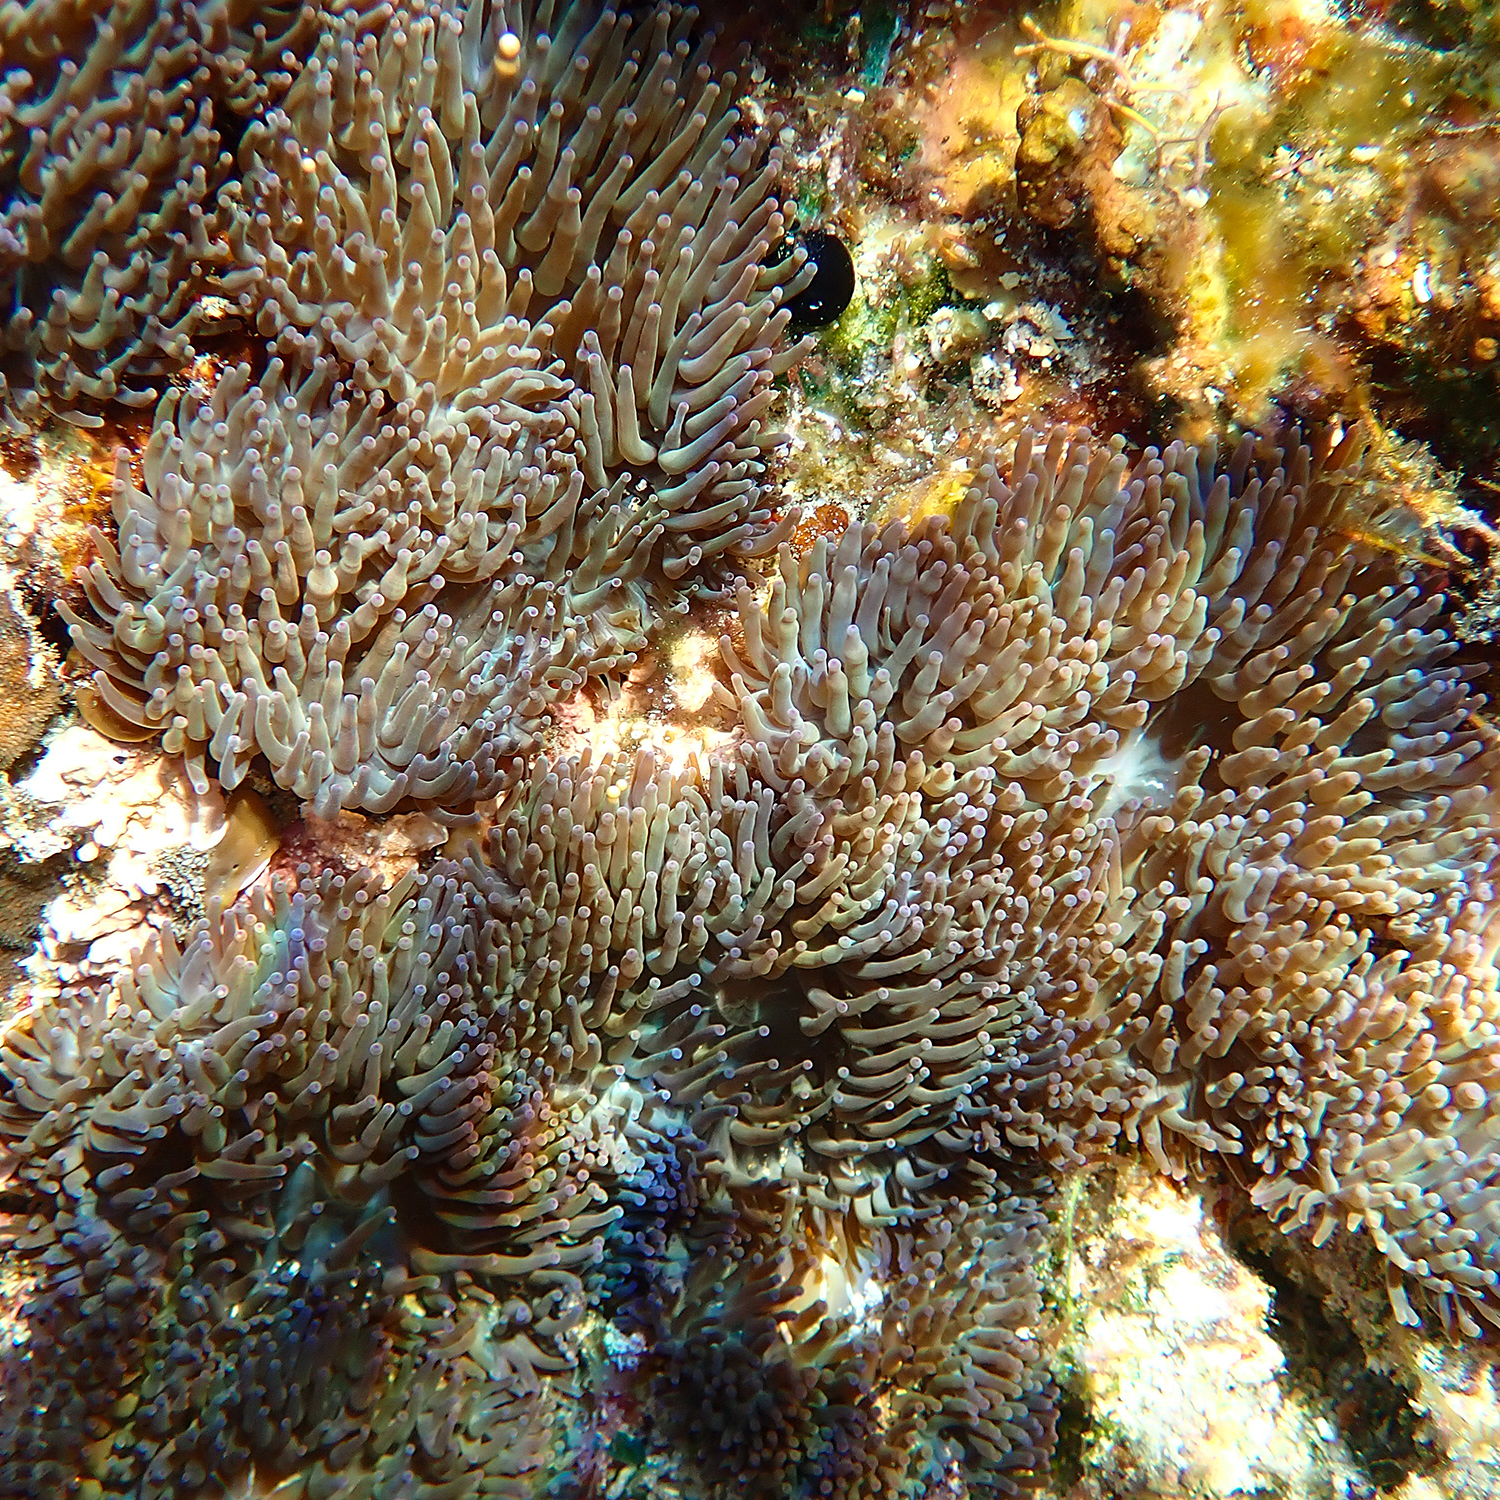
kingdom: Animalia
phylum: Cnidaria
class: Anthozoa
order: Actiniaria
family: Actiniidae
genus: Entacmaea
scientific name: Entacmaea quadricolor
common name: Bulb tentacle sea anemone
